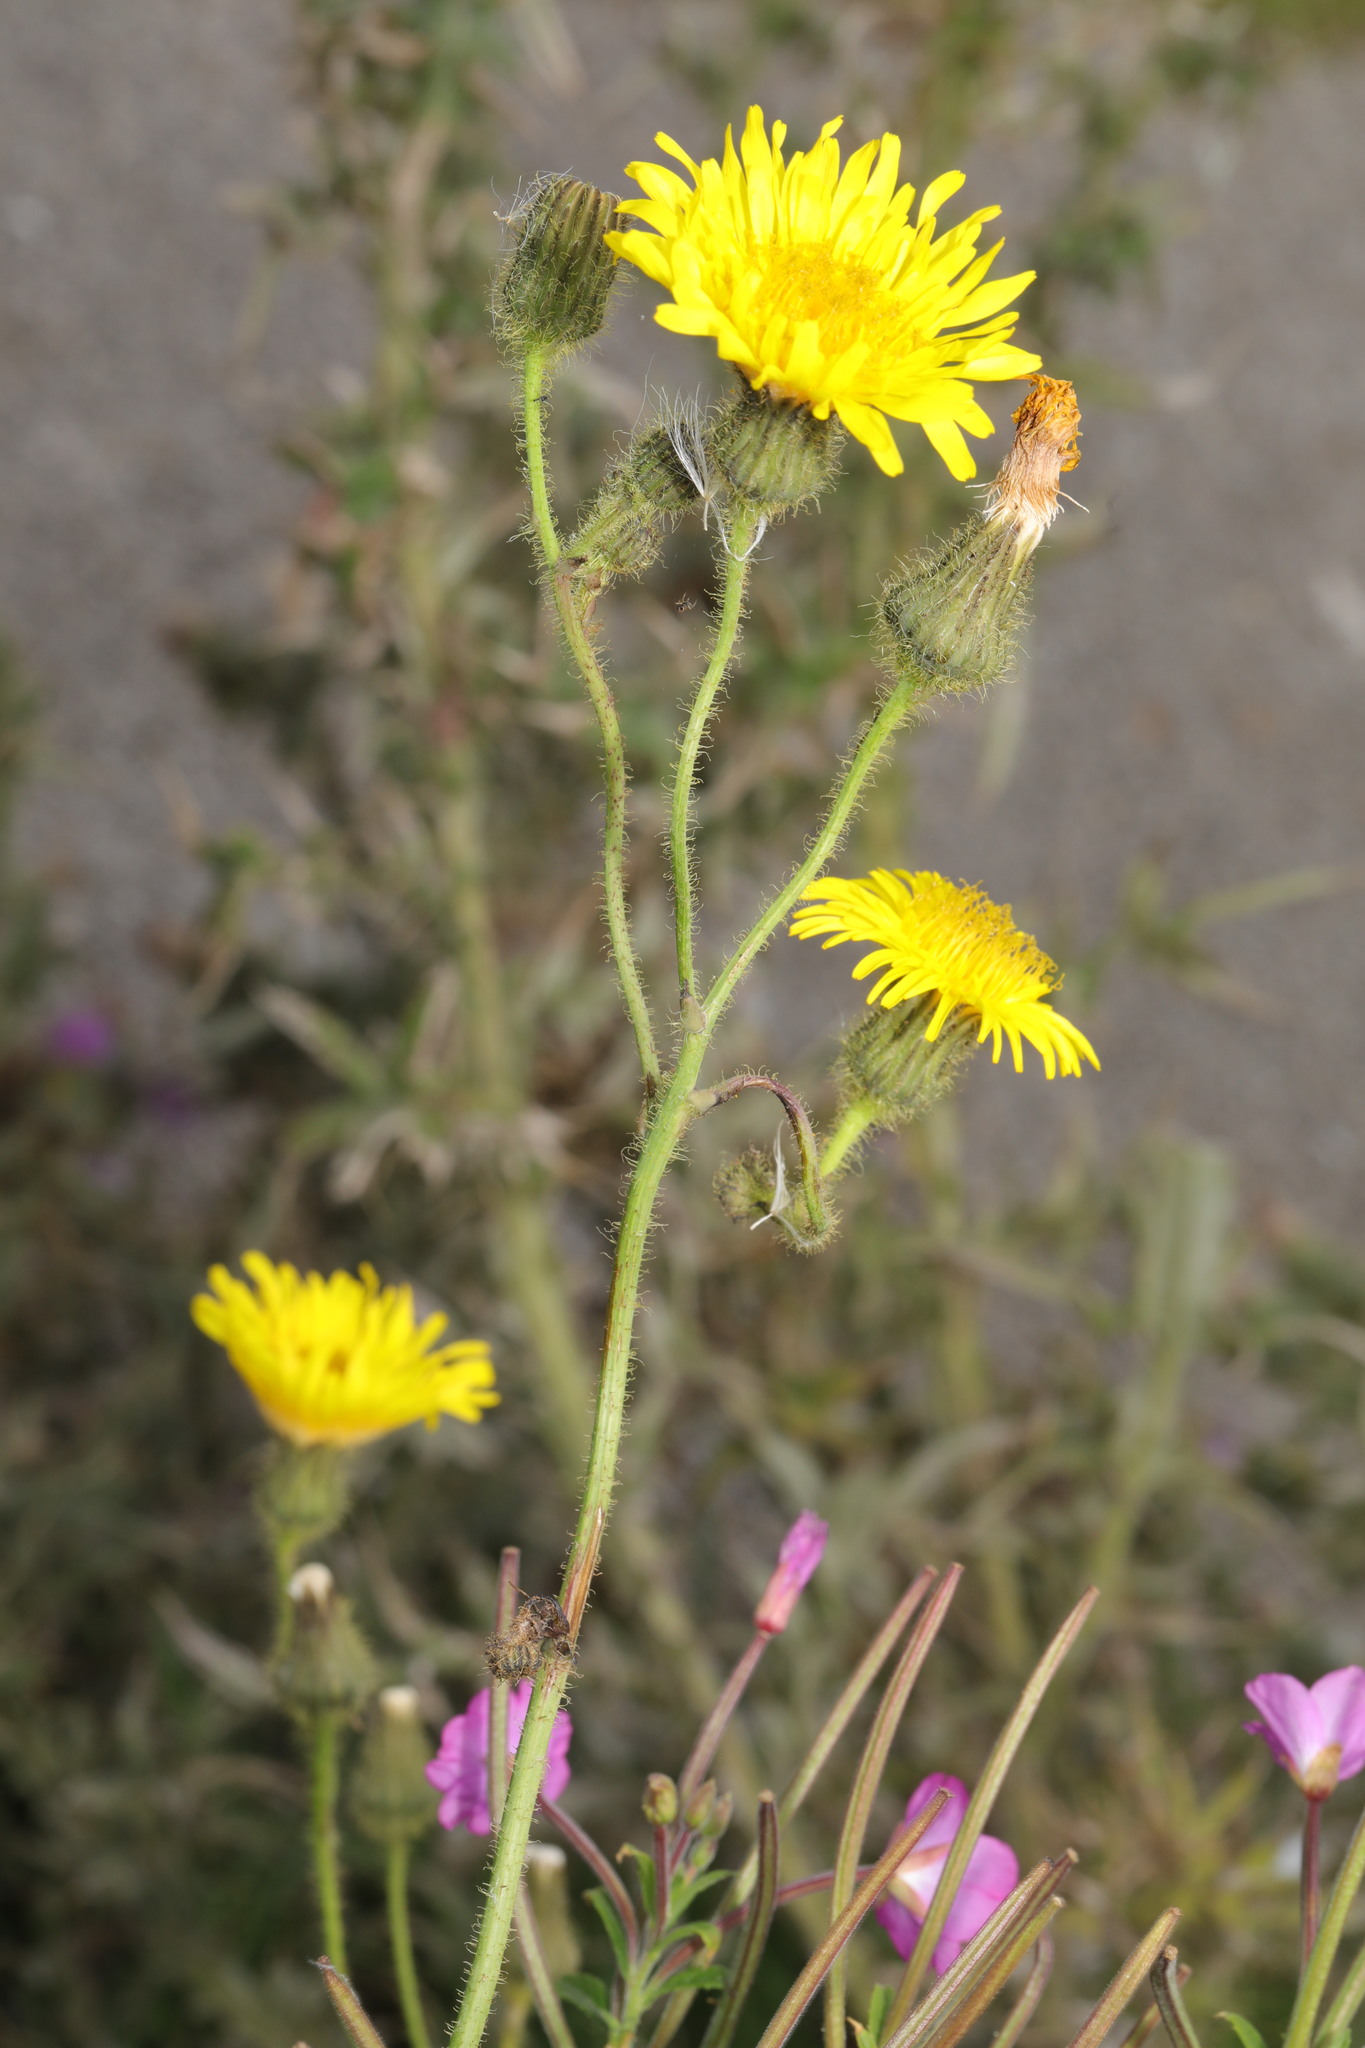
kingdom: Plantae
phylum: Tracheophyta
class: Magnoliopsida
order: Asterales
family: Asteraceae
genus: Sonchus
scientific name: Sonchus arvensis
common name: Perennial sow-thistle
